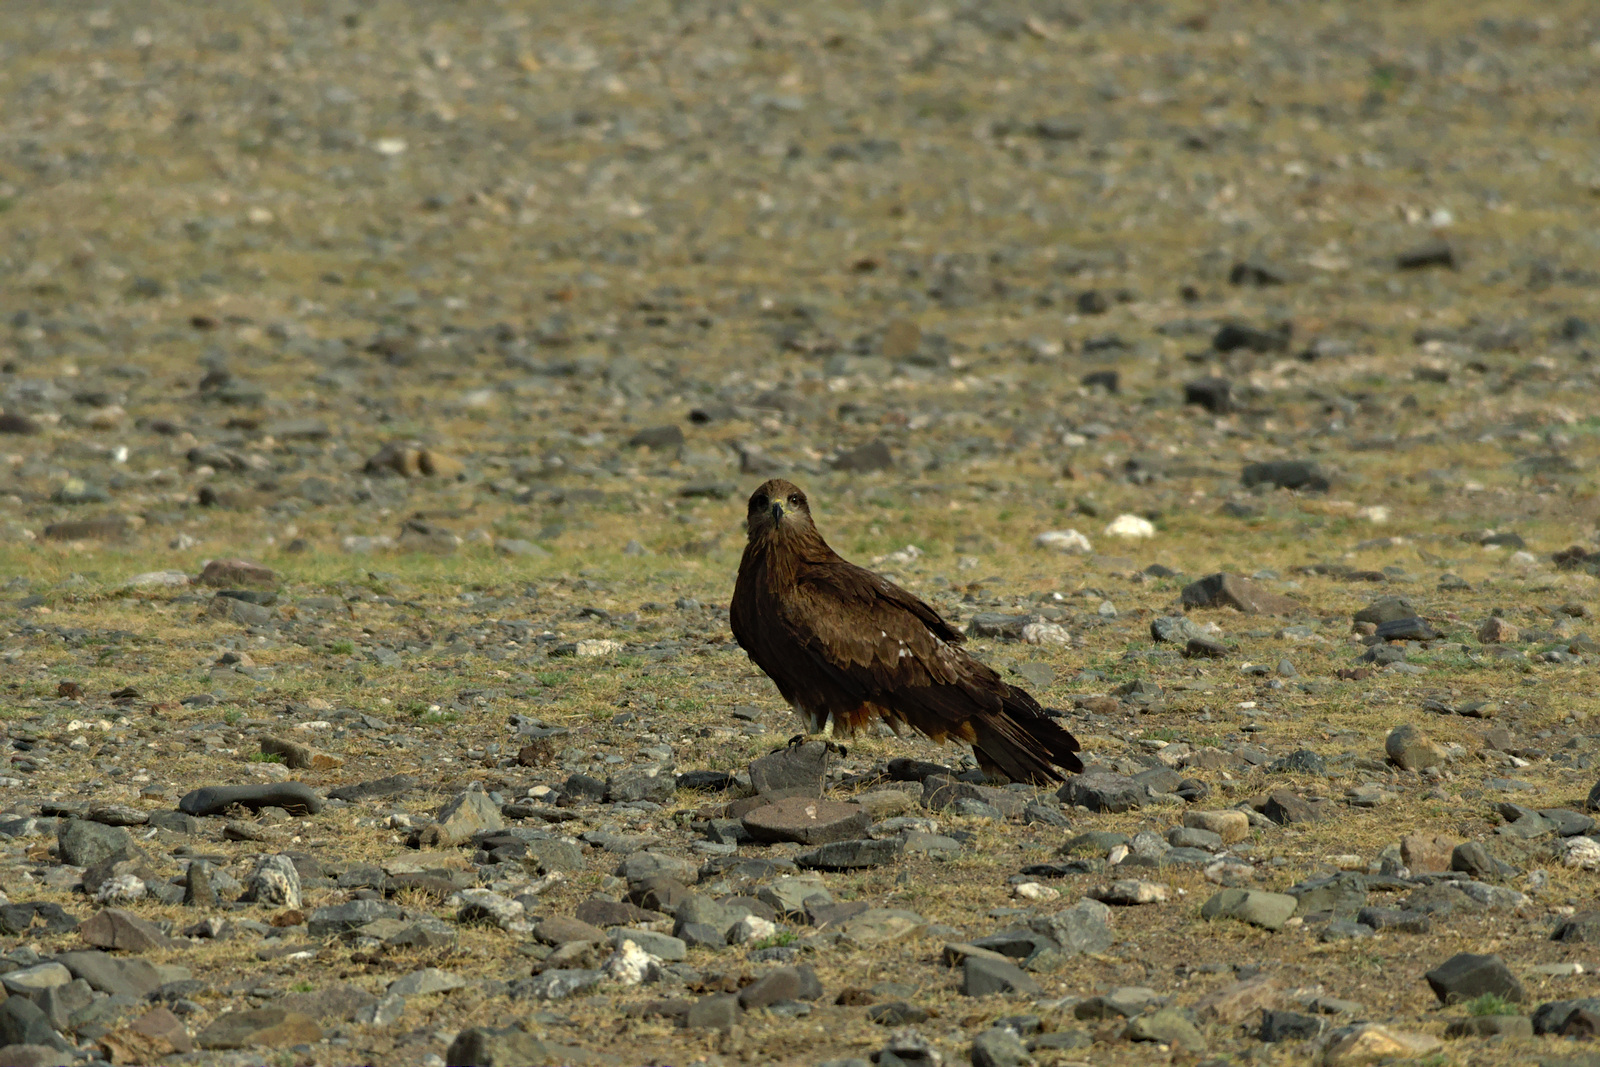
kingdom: Animalia
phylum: Chordata
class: Aves
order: Accipitriformes
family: Accipitridae
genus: Milvus
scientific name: Milvus migrans
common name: Black kite
